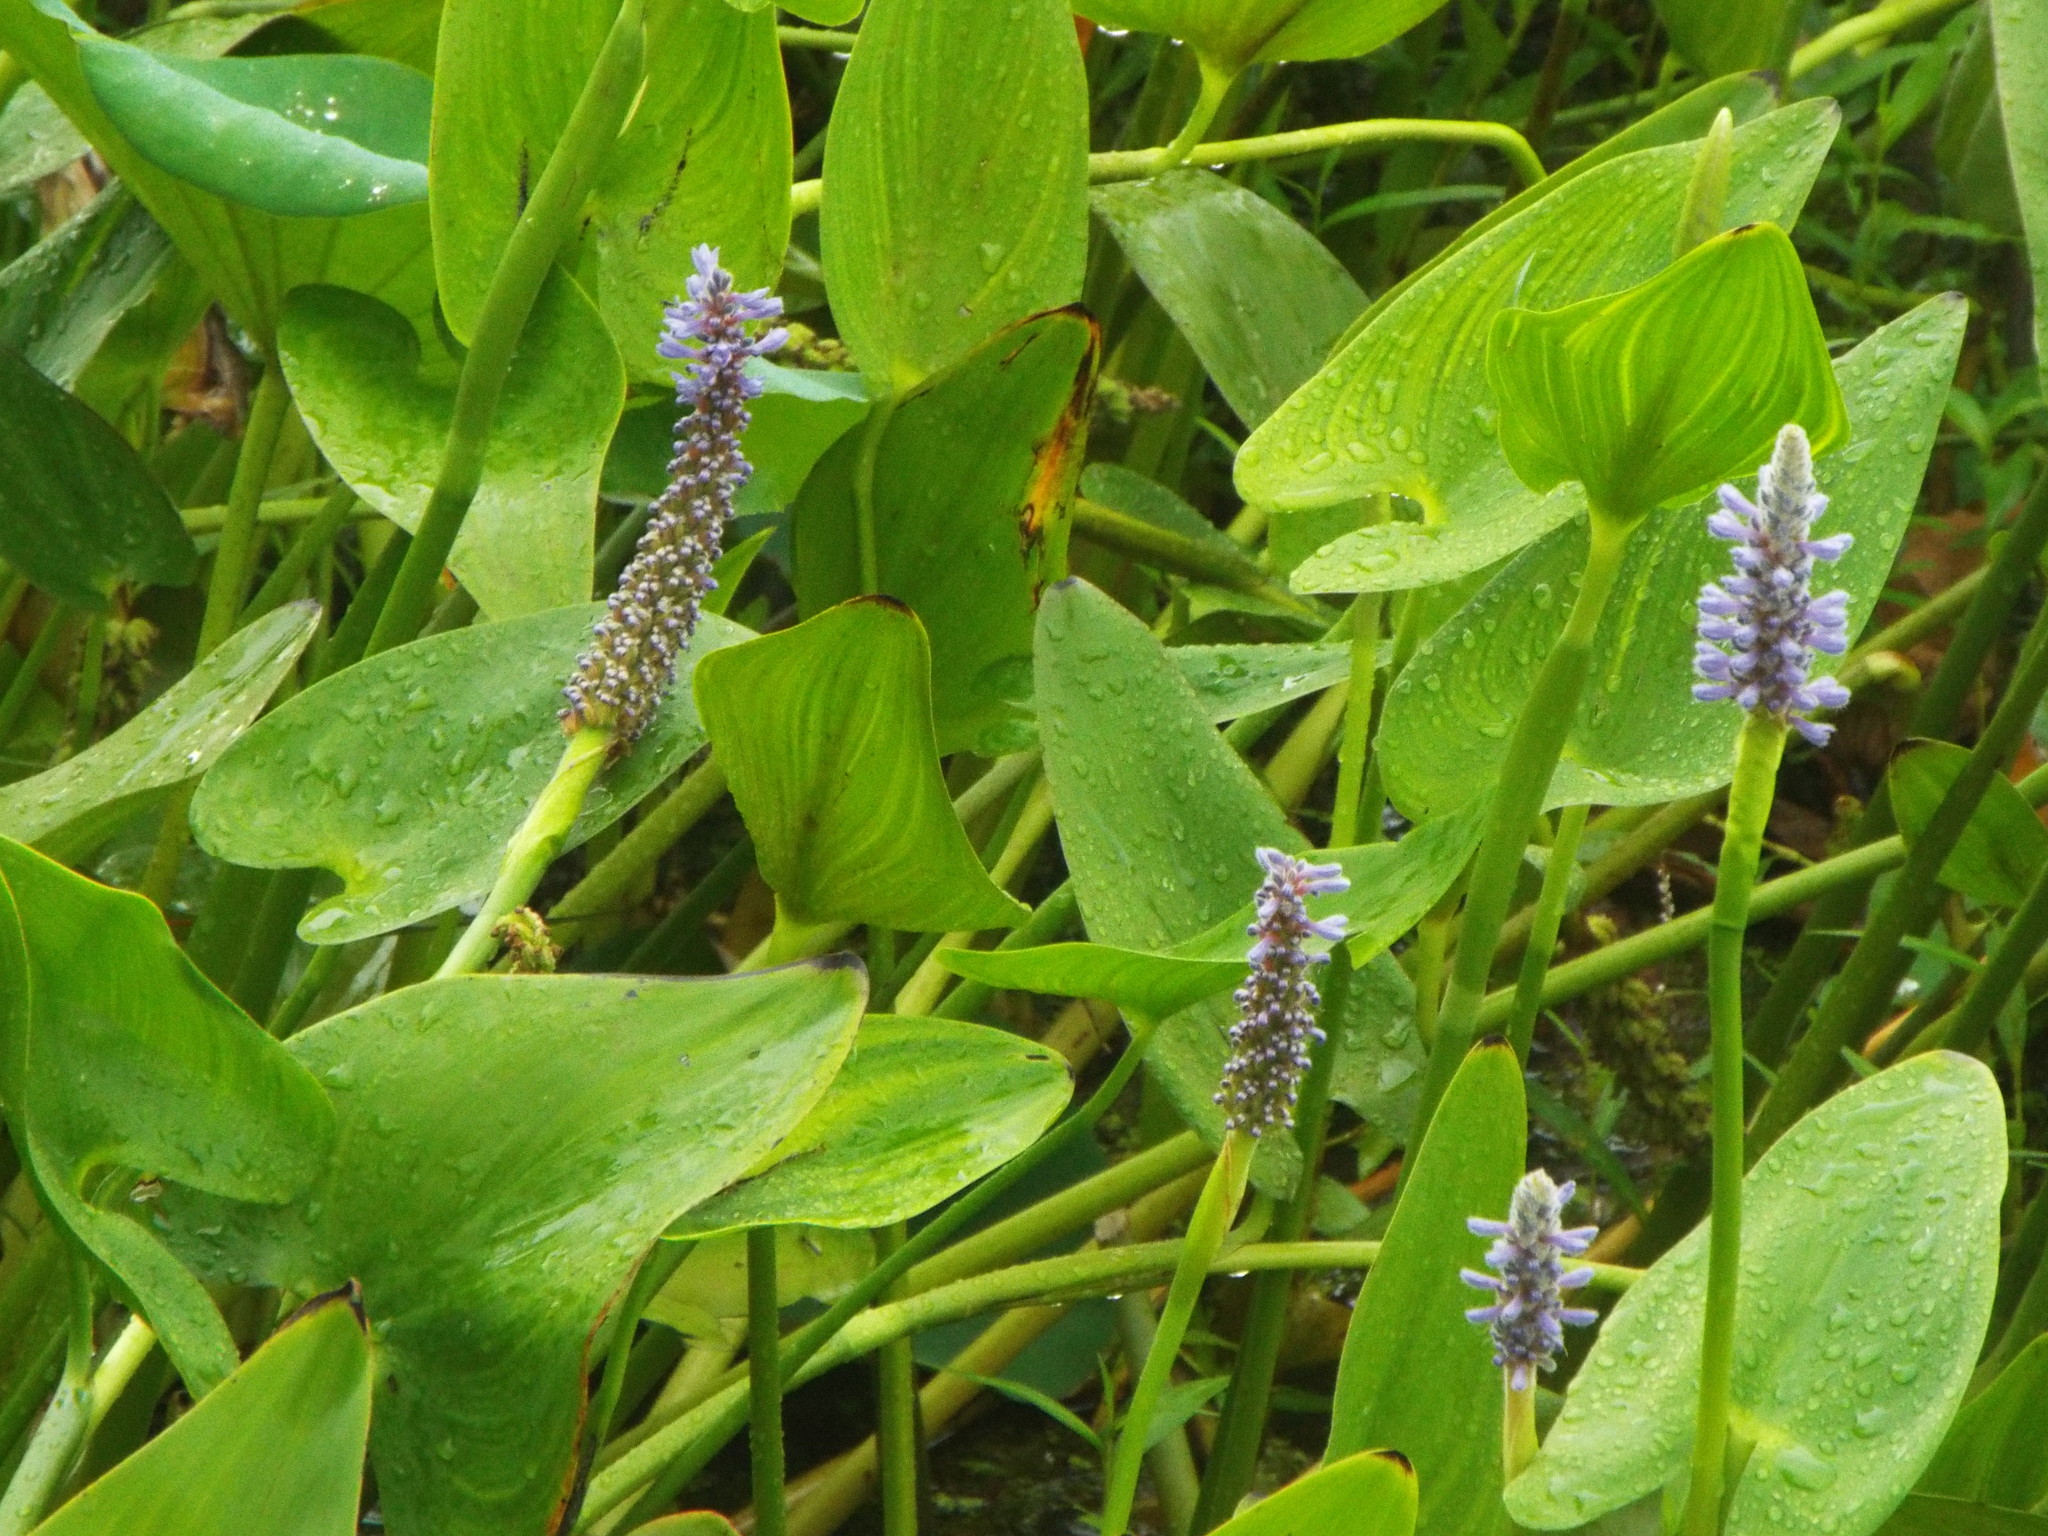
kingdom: Plantae
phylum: Tracheophyta
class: Liliopsida
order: Commelinales
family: Pontederiaceae
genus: Pontederia
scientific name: Pontederia cordata
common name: Pickerelweed
